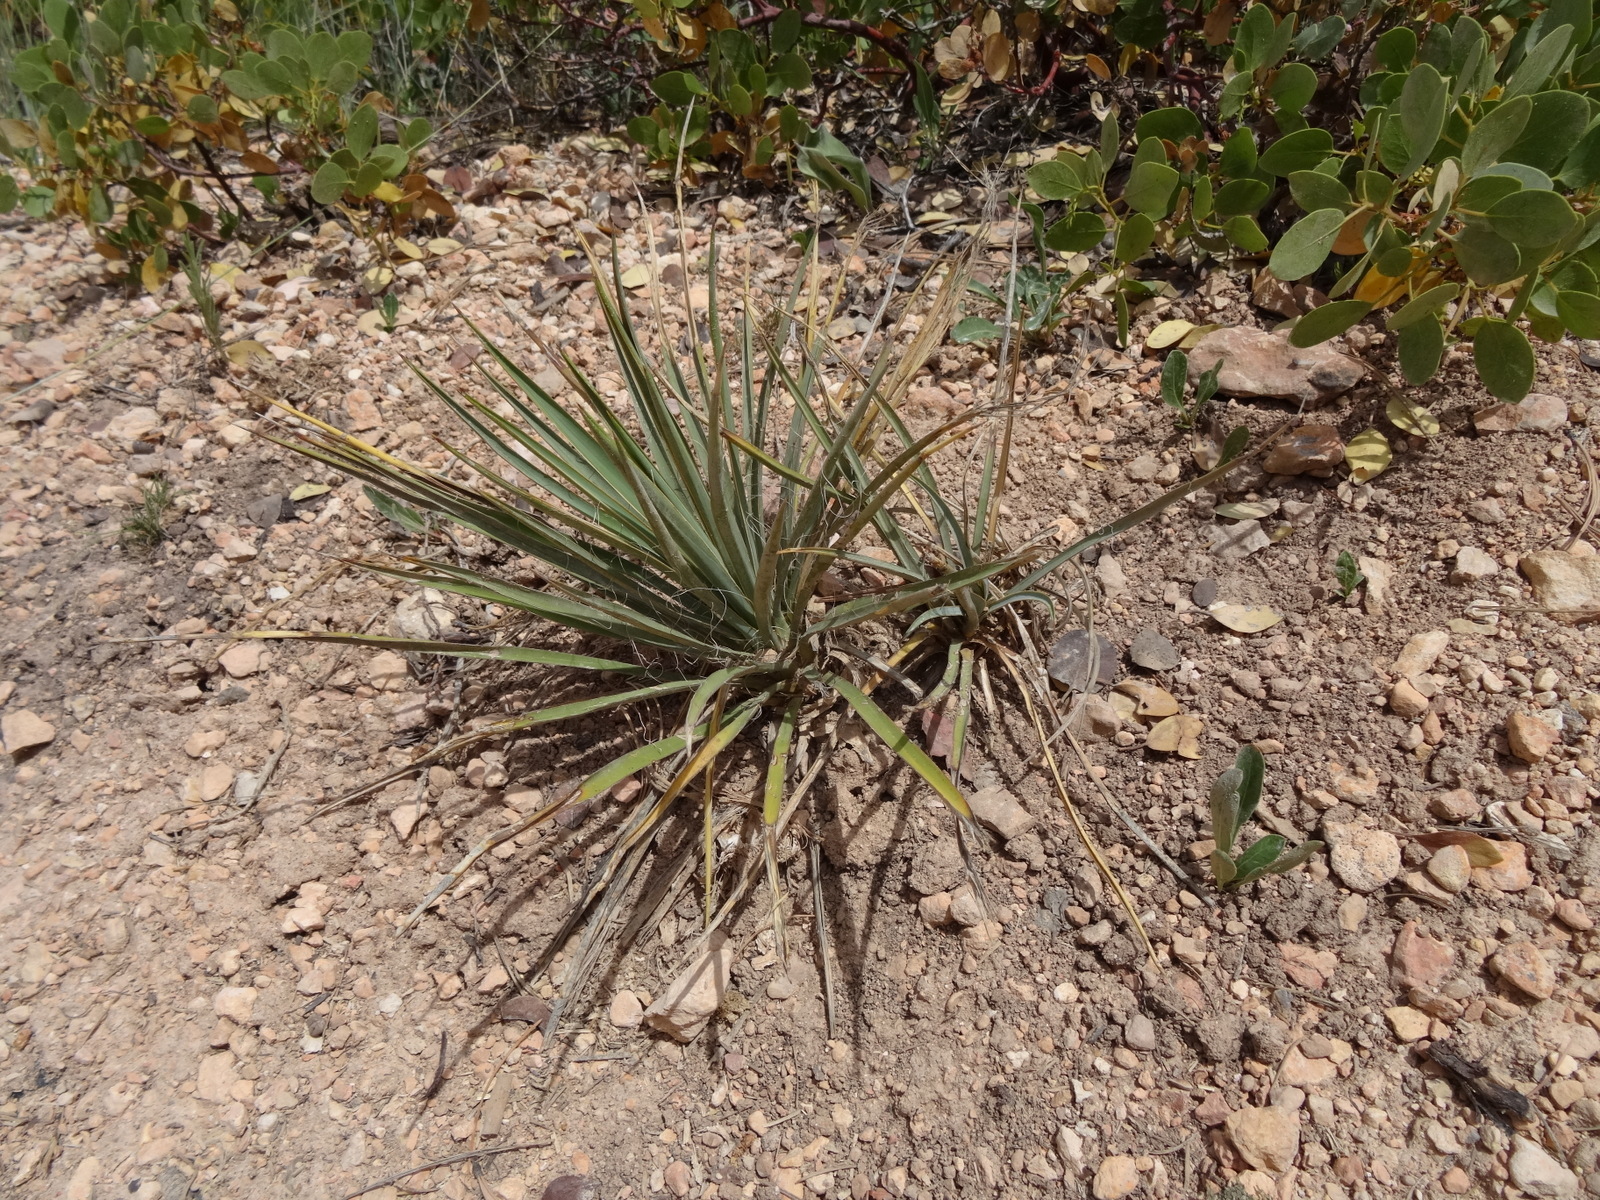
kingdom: Plantae
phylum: Tracheophyta
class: Liliopsida
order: Asparagales
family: Asparagaceae
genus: Yucca
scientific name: Yucca angustissima
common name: Narrowleaf yucca
